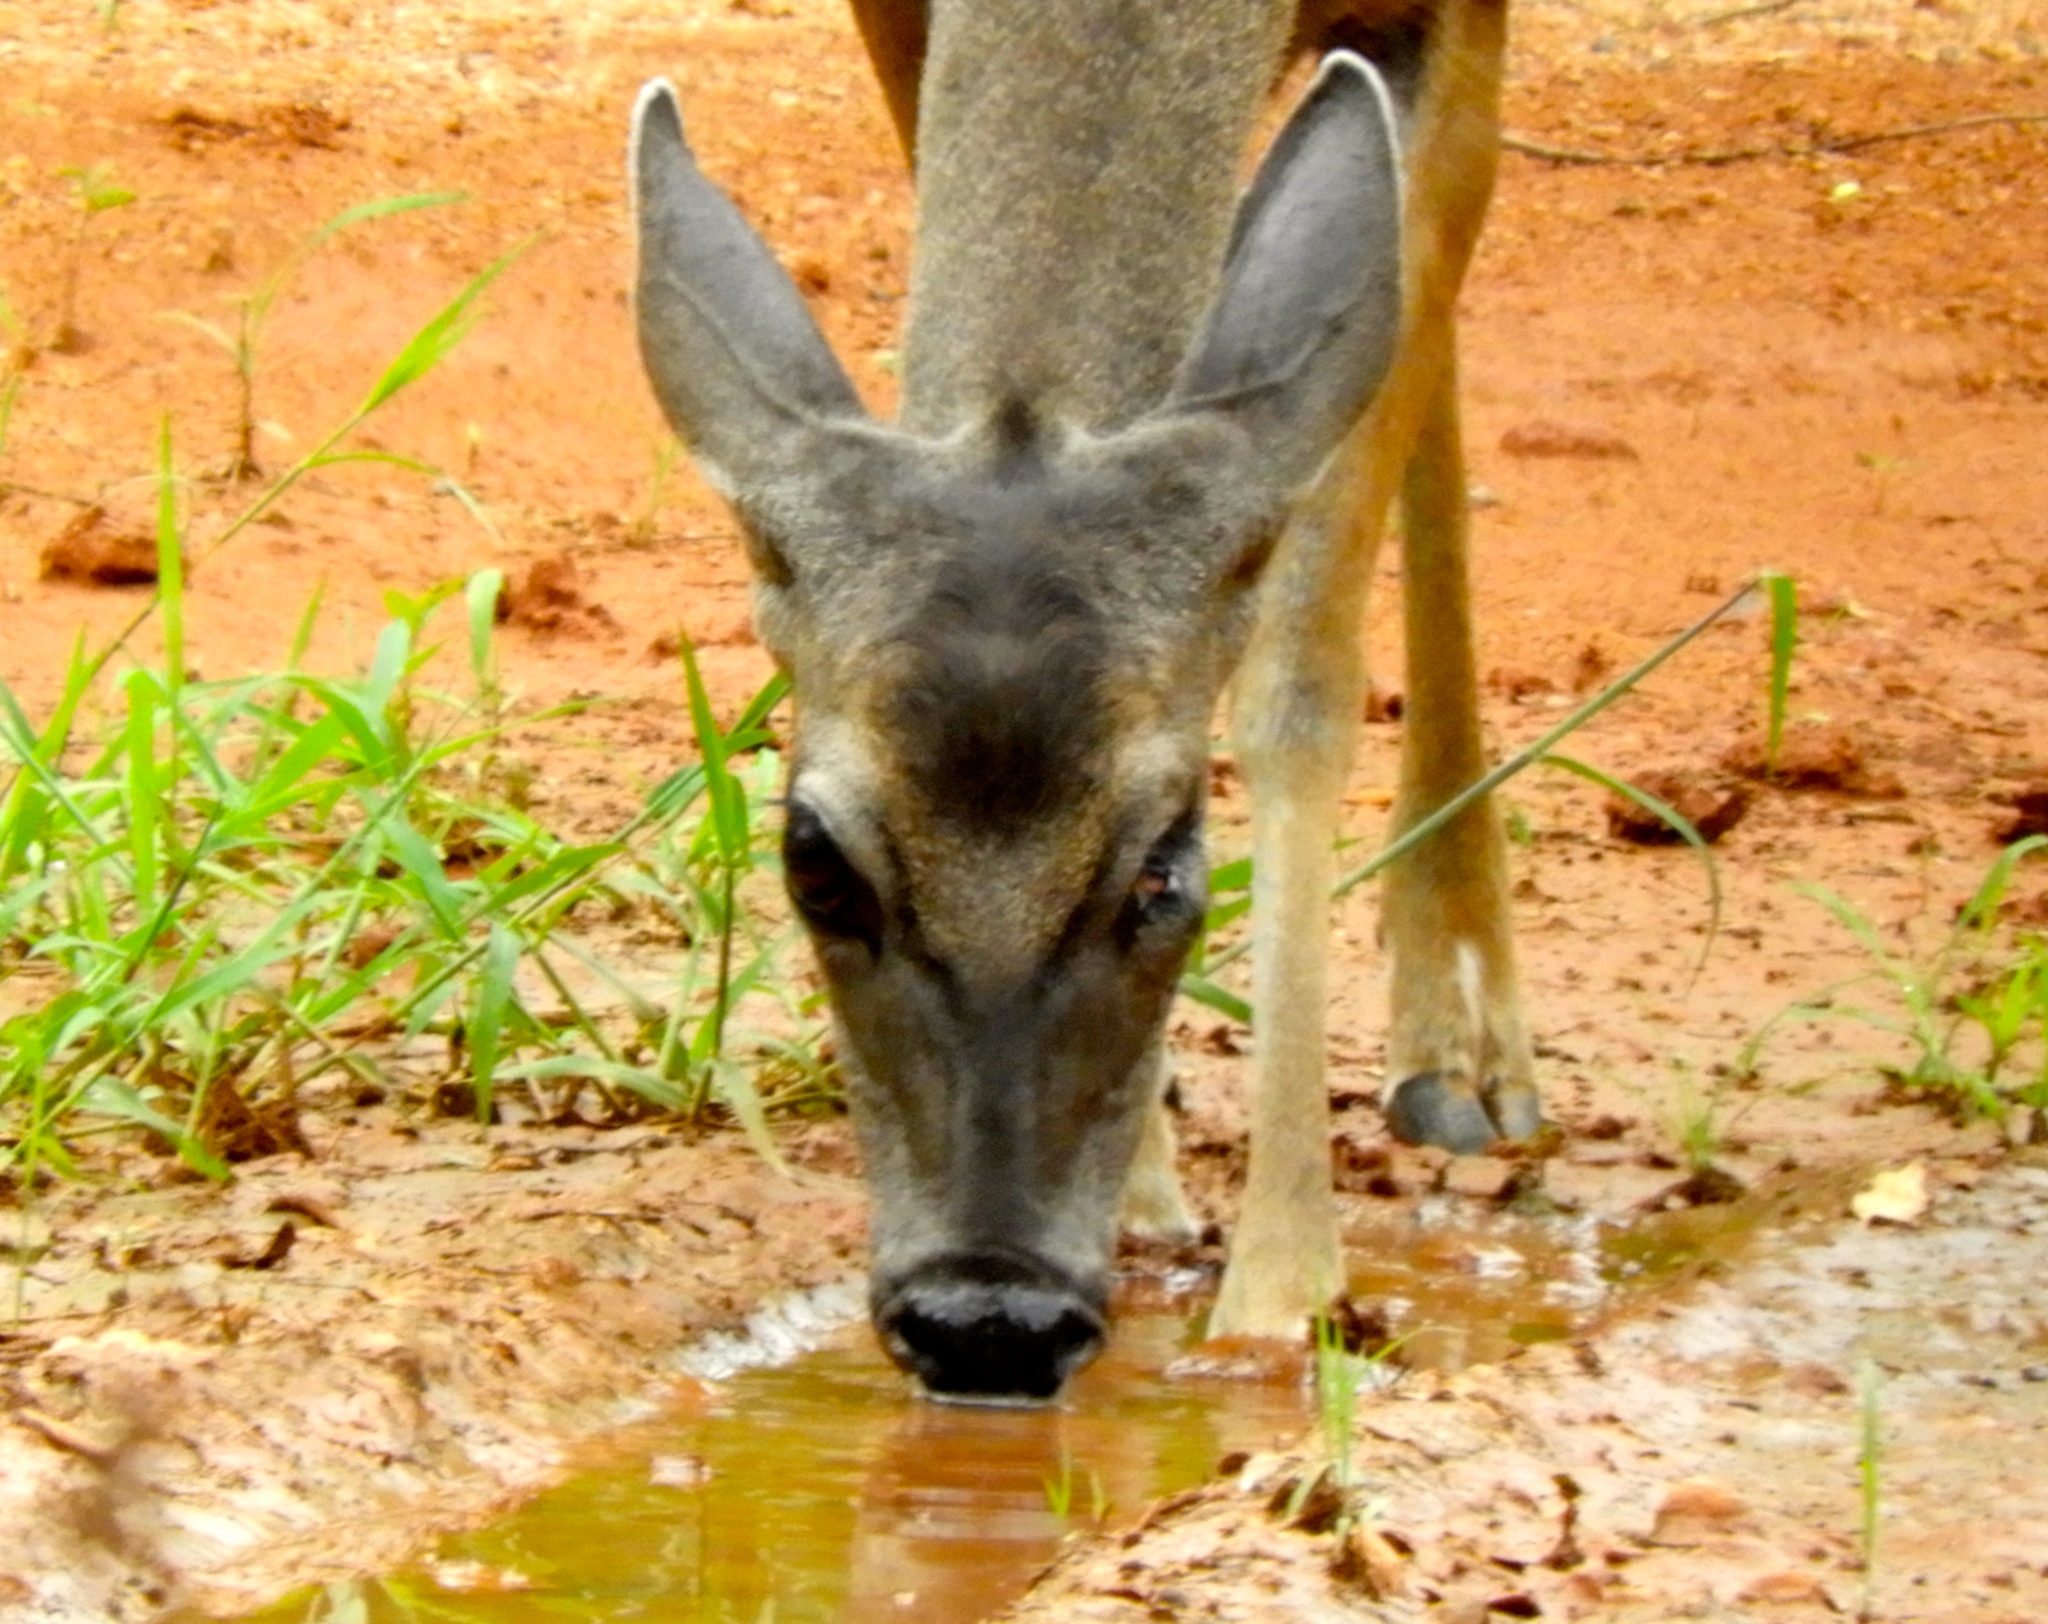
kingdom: Animalia
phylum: Chordata
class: Mammalia
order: Artiodactyla
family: Cervidae
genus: Odocoileus
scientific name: Odocoileus virginianus
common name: White-tailed deer
